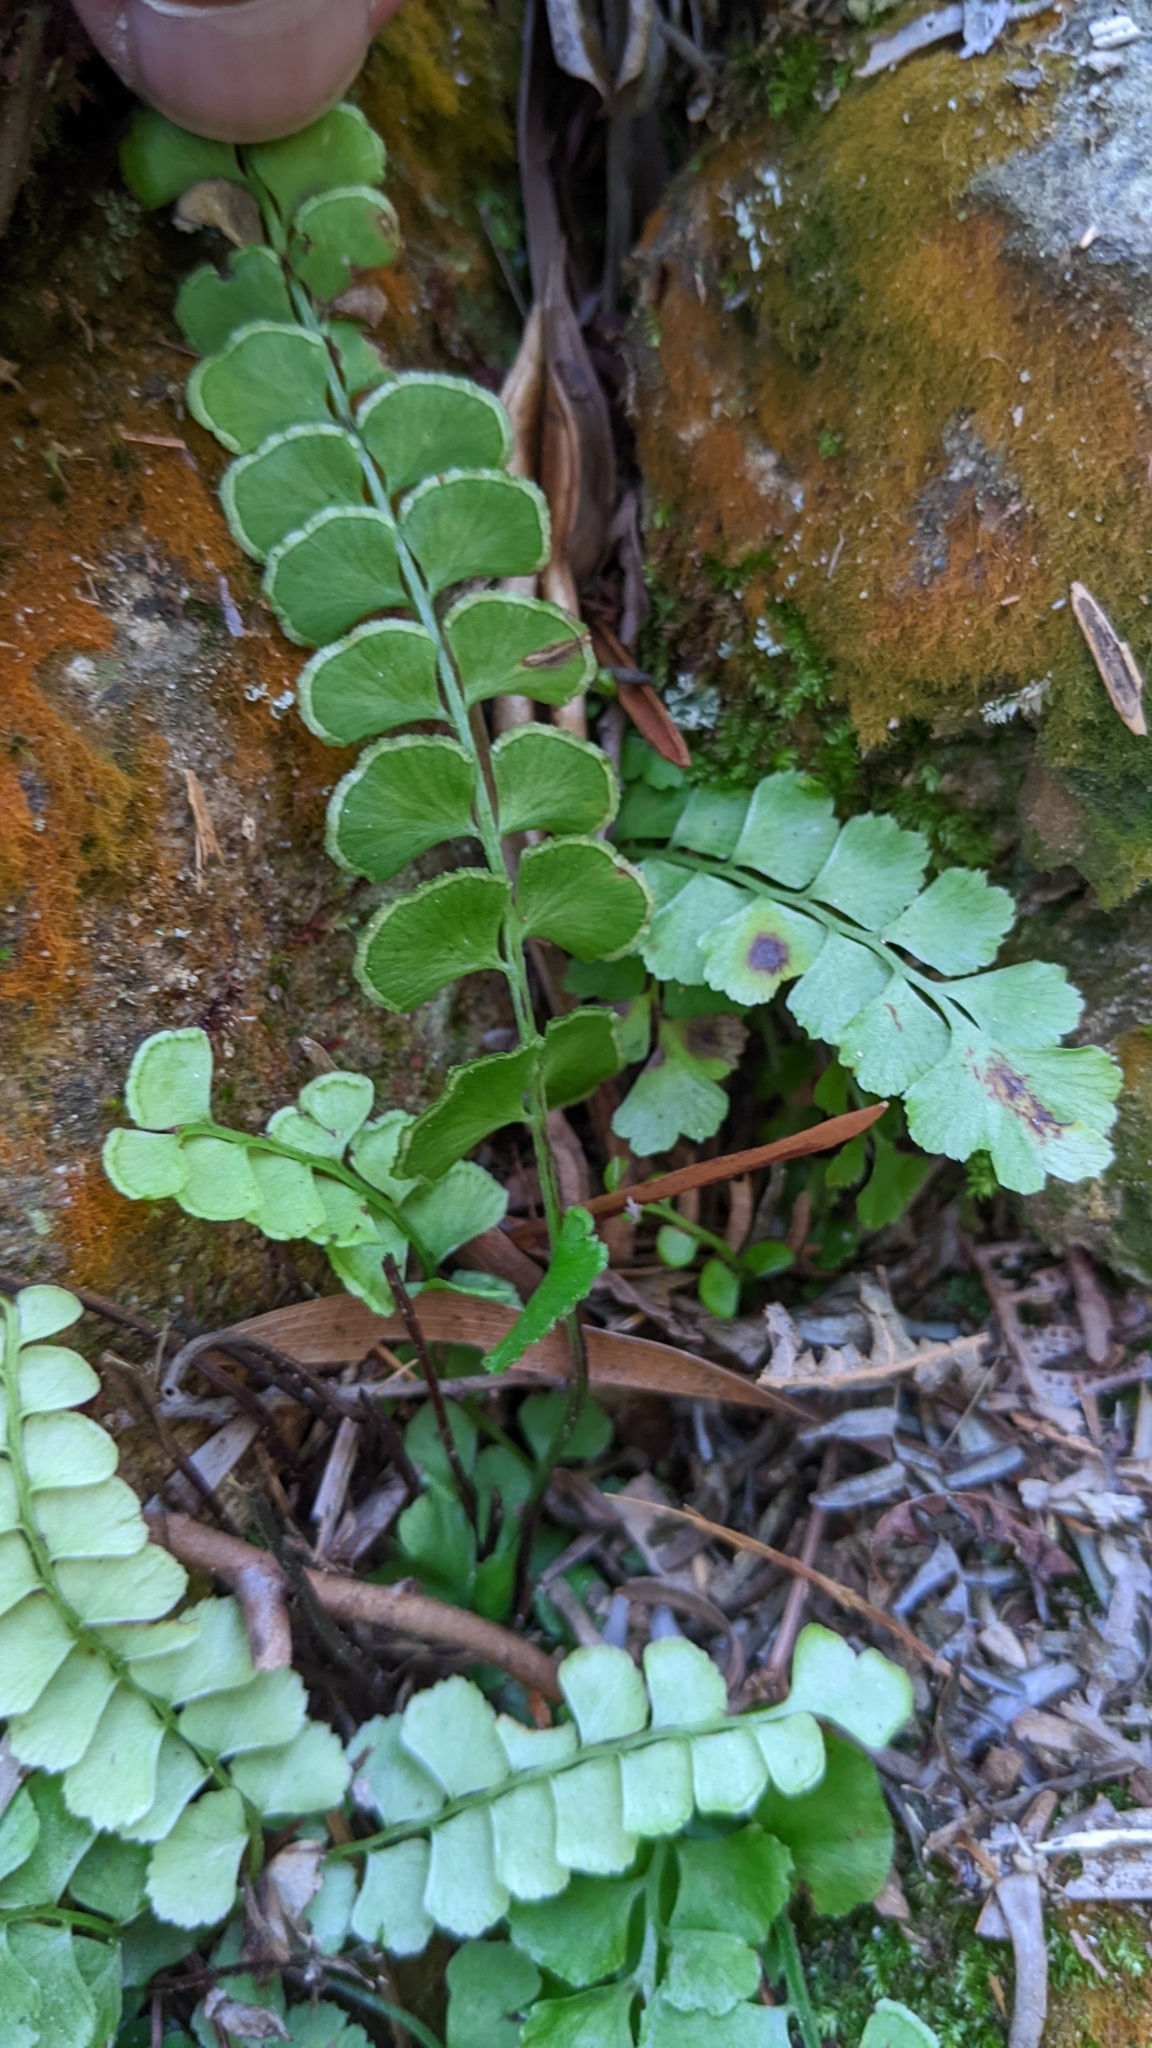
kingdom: Plantae
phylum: Tracheophyta
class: Polypodiopsida
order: Polypodiales
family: Lindsaeaceae
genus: Lindsaea
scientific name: Lindsaea orbiculata
